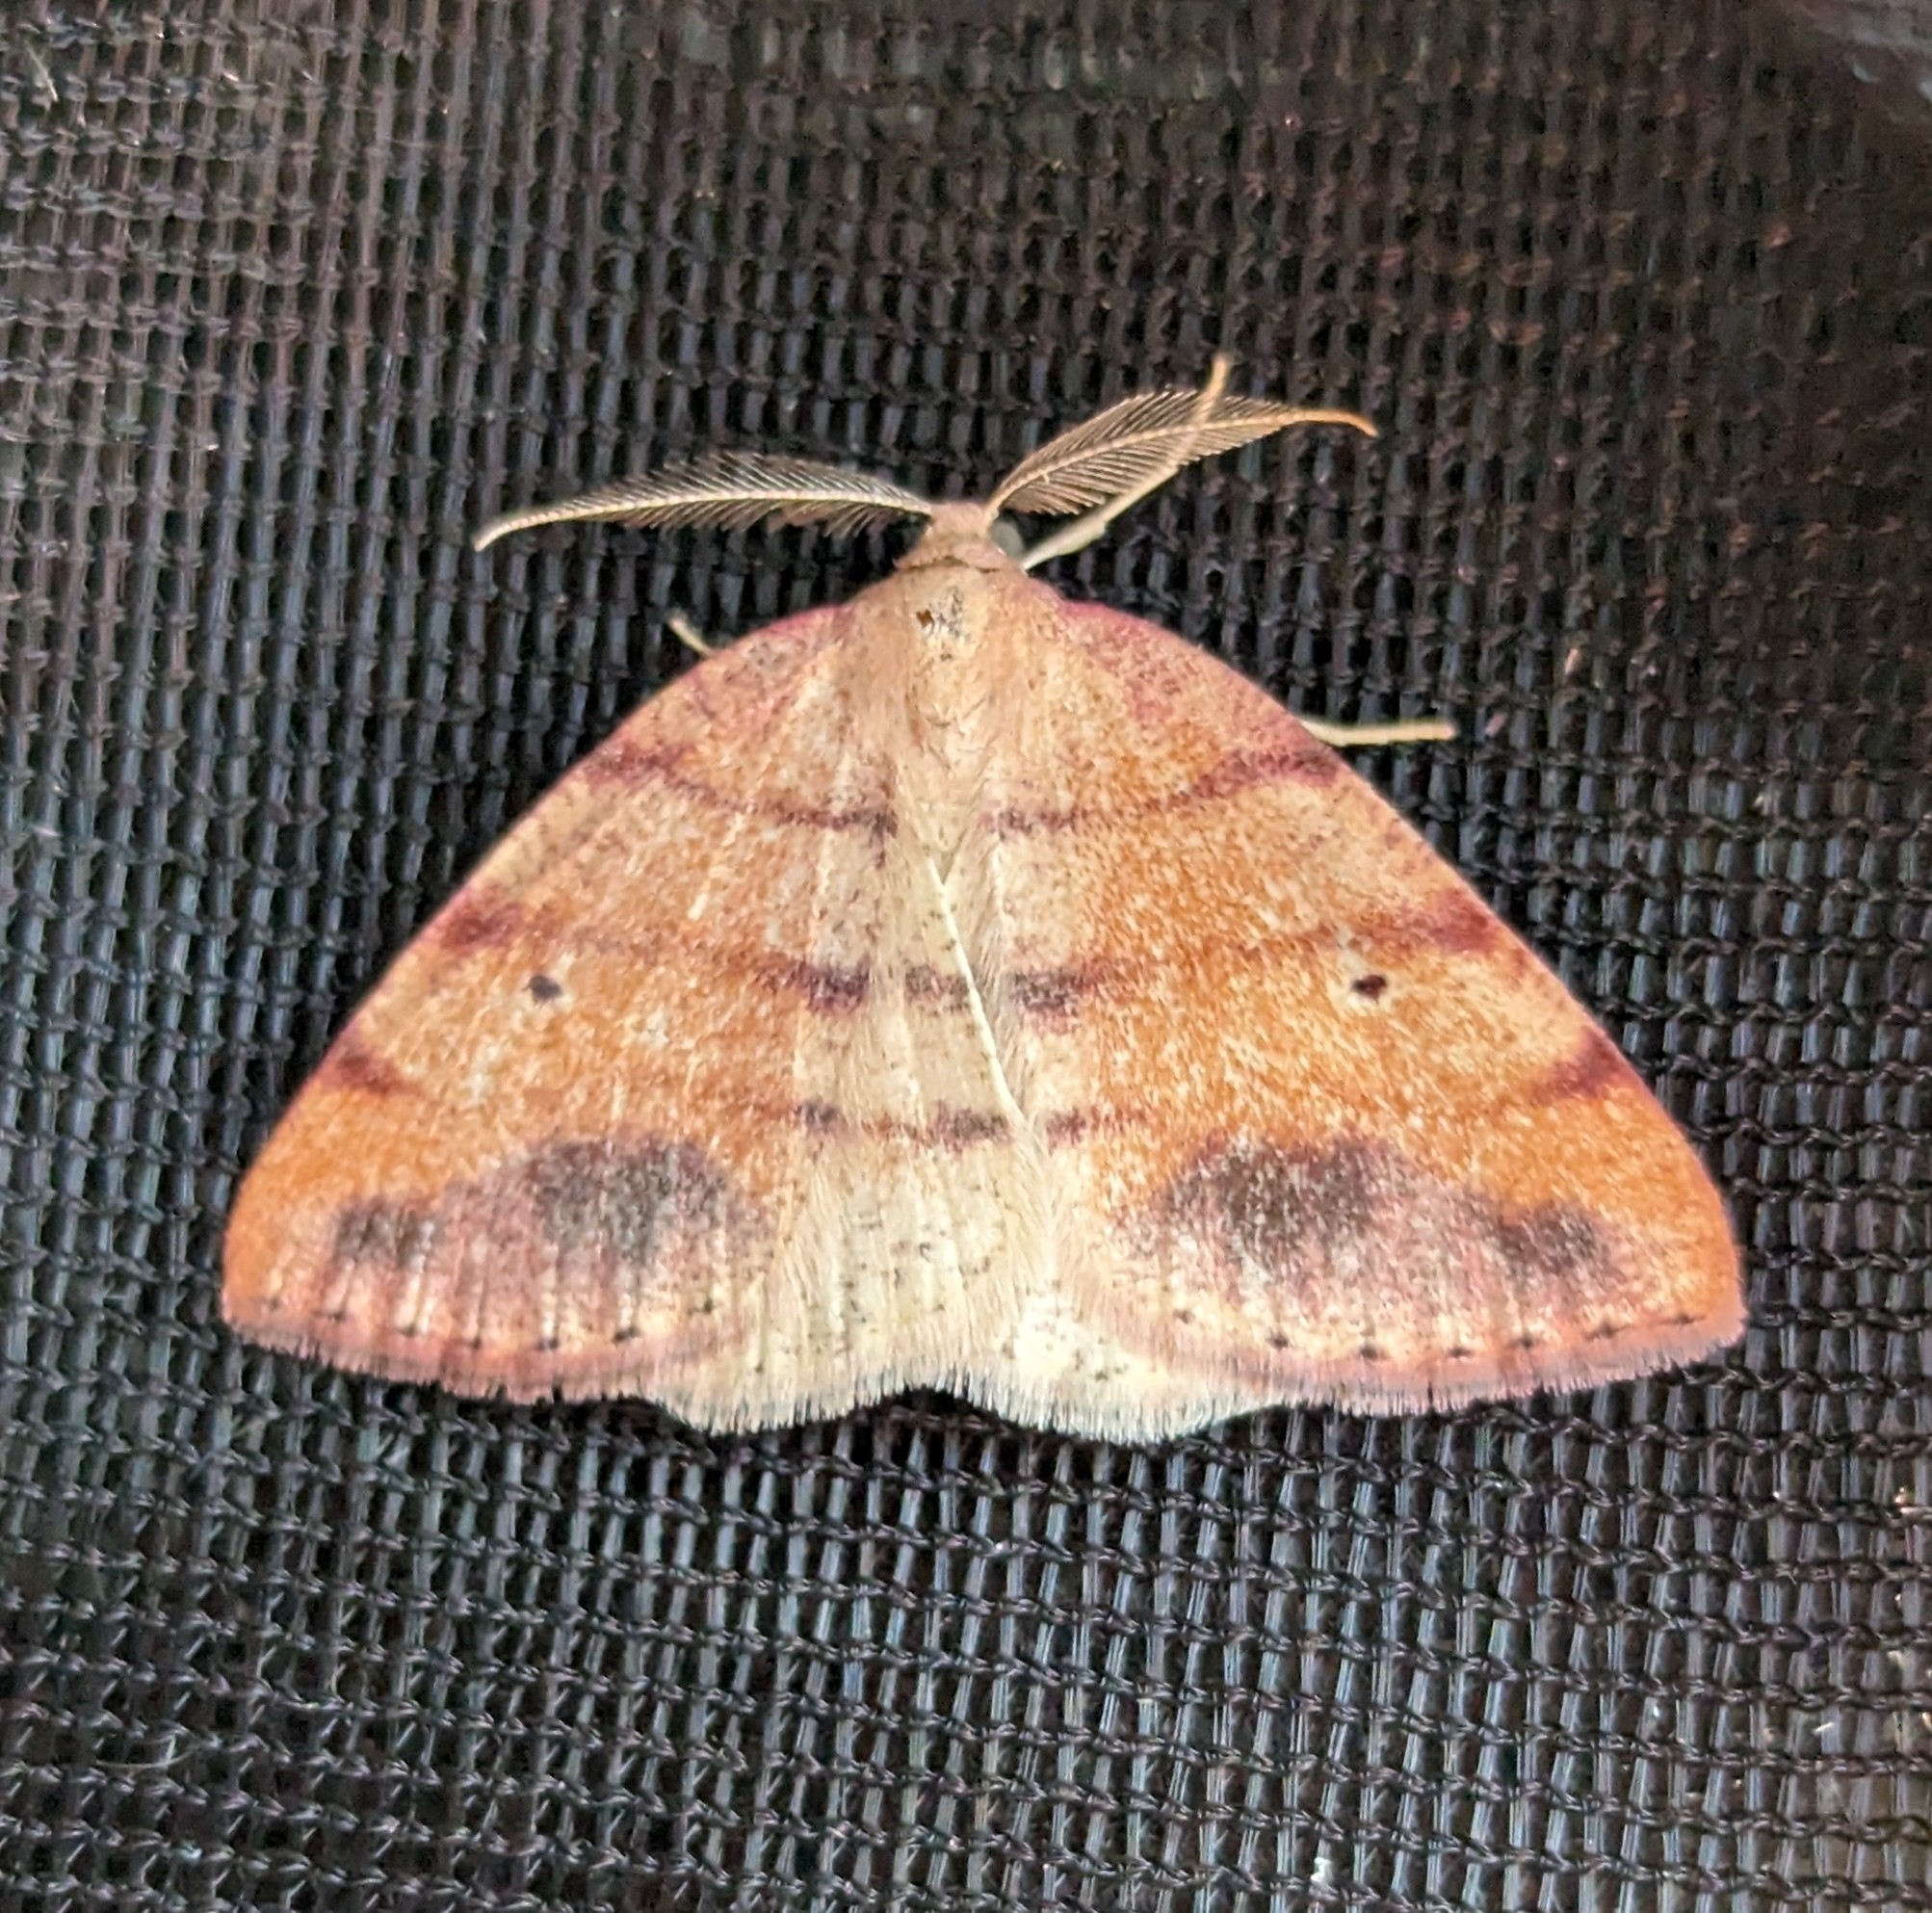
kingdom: Animalia
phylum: Arthropoda
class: Insecta
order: Lepidoptera
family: Geometridae
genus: Drepanulatrix
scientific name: Drepanulatrix carnearia
